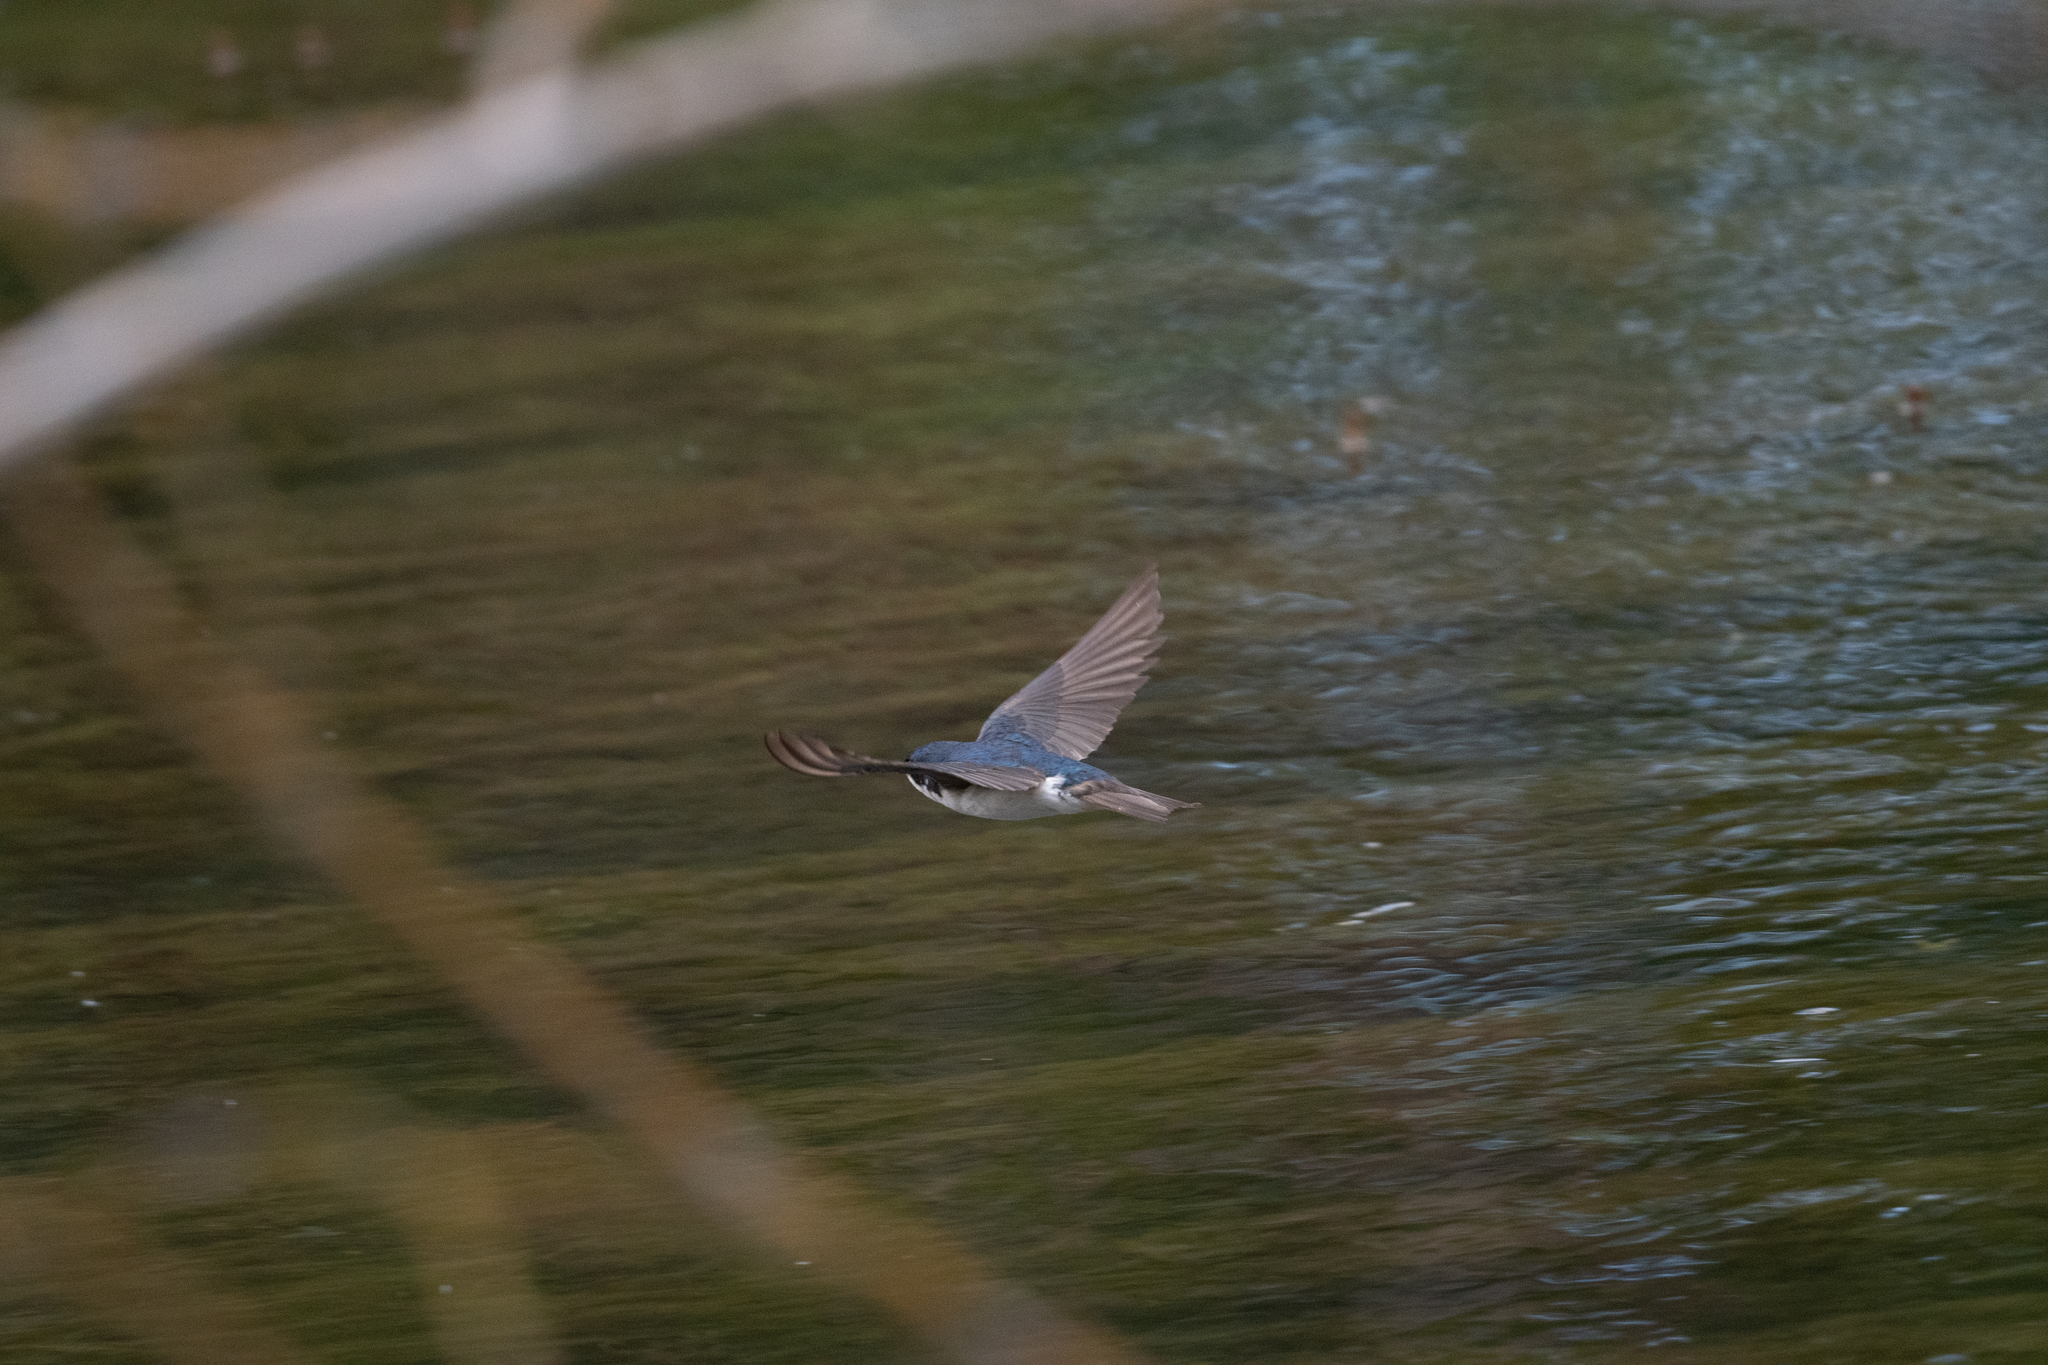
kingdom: Animalia
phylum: Chordata
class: Aves
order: Passeriformes
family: Hirundinidae
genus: Tachycineta
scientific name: Tachycineta bicolor
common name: Tree swallow
